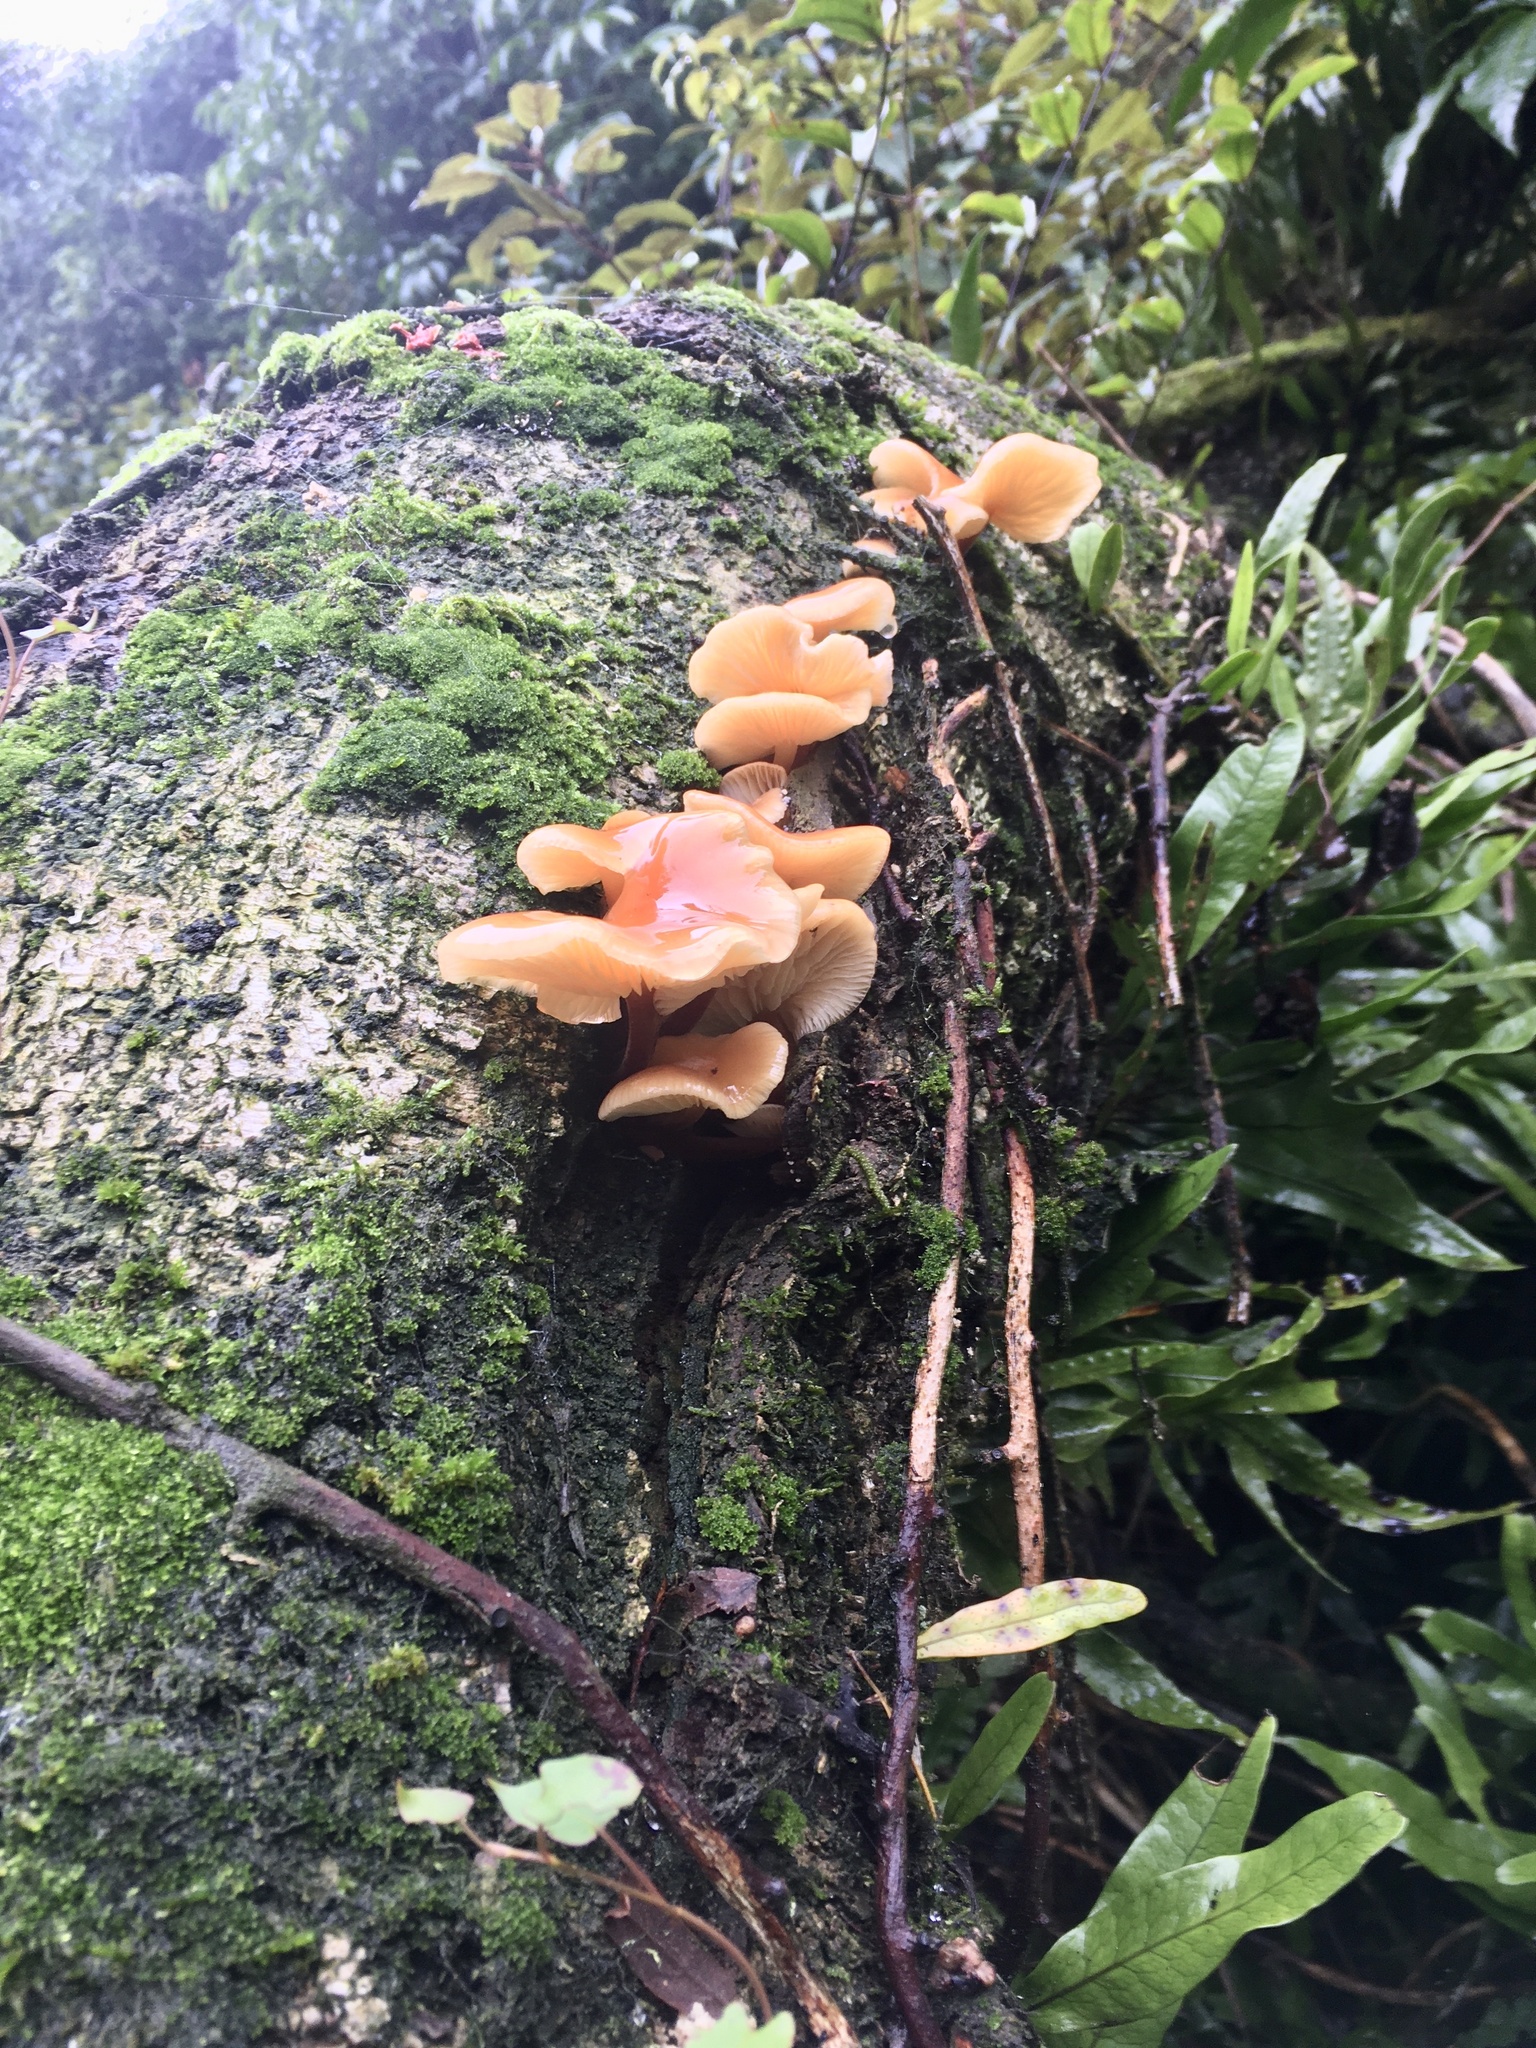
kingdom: Fungi
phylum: Basidiomycota
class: Agaricomycetes
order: Agaricales
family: Physalacriaceae
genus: Flammulina
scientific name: Flammulina velutipes
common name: Velvet shank
